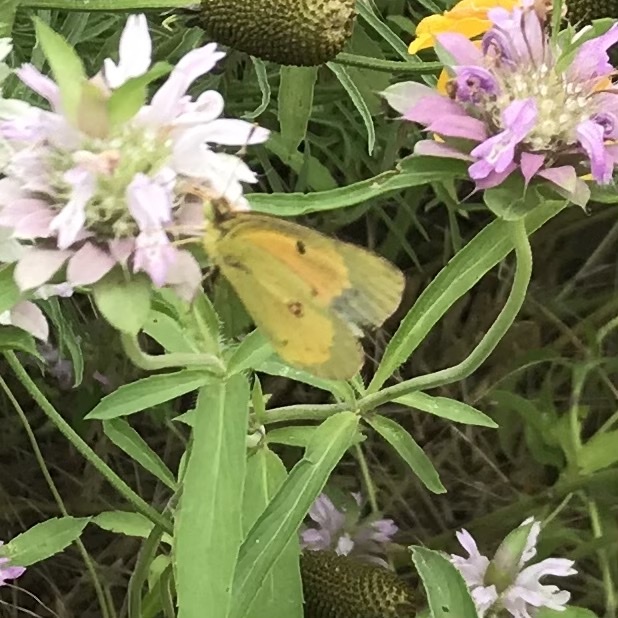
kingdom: Animalia
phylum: Arthropoda
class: Insecta
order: Lepidoptera
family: Pieridae
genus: Colias
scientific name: Colias eurytheme
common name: Alfalfa butterfly
